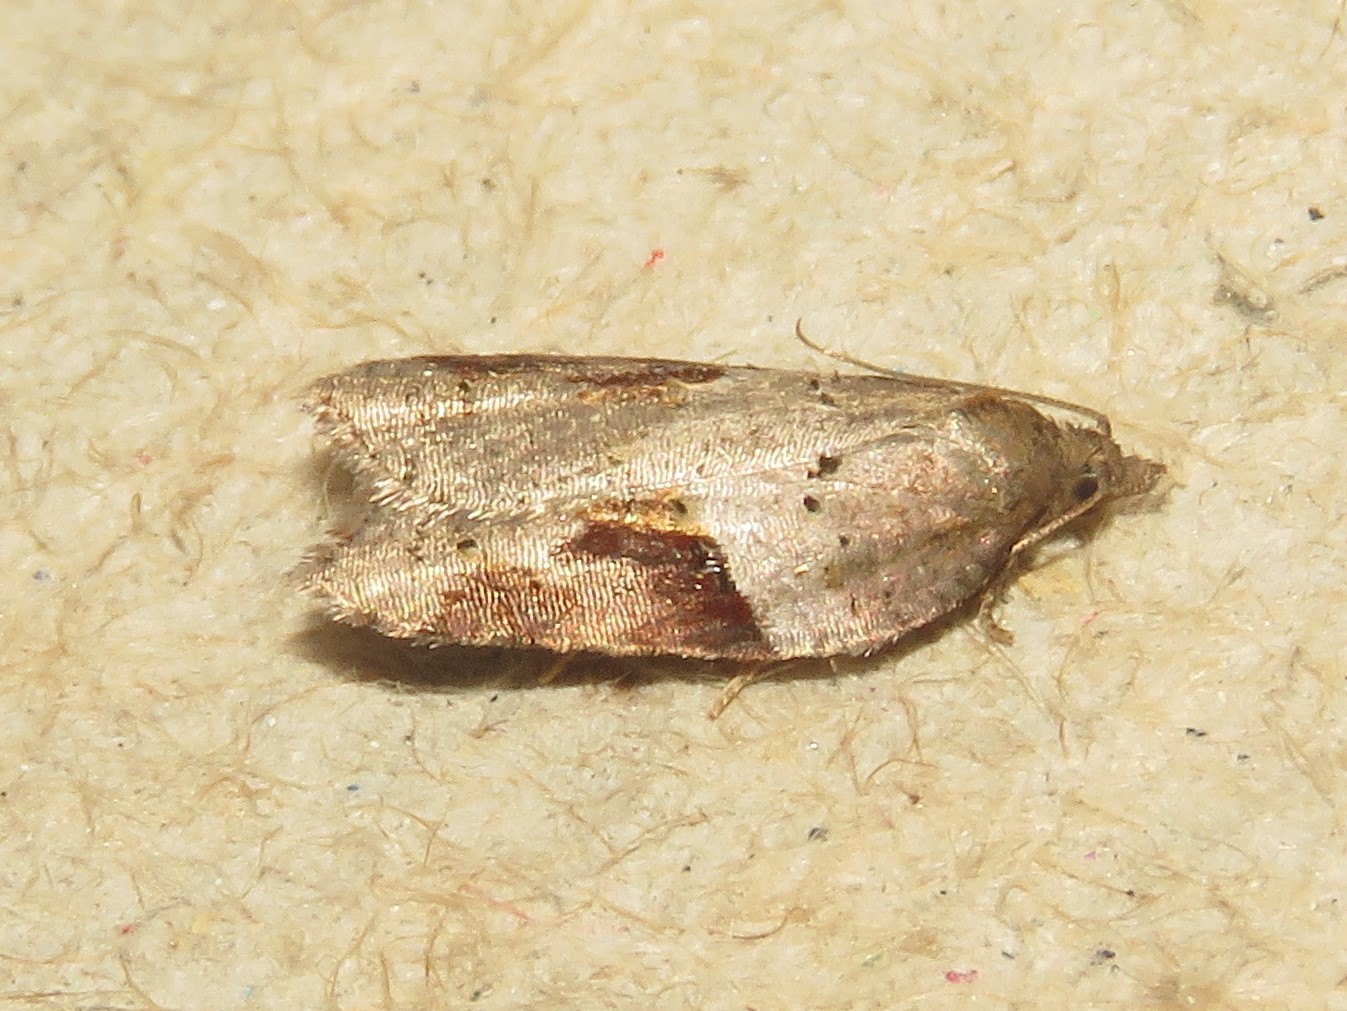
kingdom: Animalia
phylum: Arthropoda
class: Insecta
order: Lepidoptera
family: Tortricidae
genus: Acleris
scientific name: Acleris macdunnoughi
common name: Macdunnough's acleris
